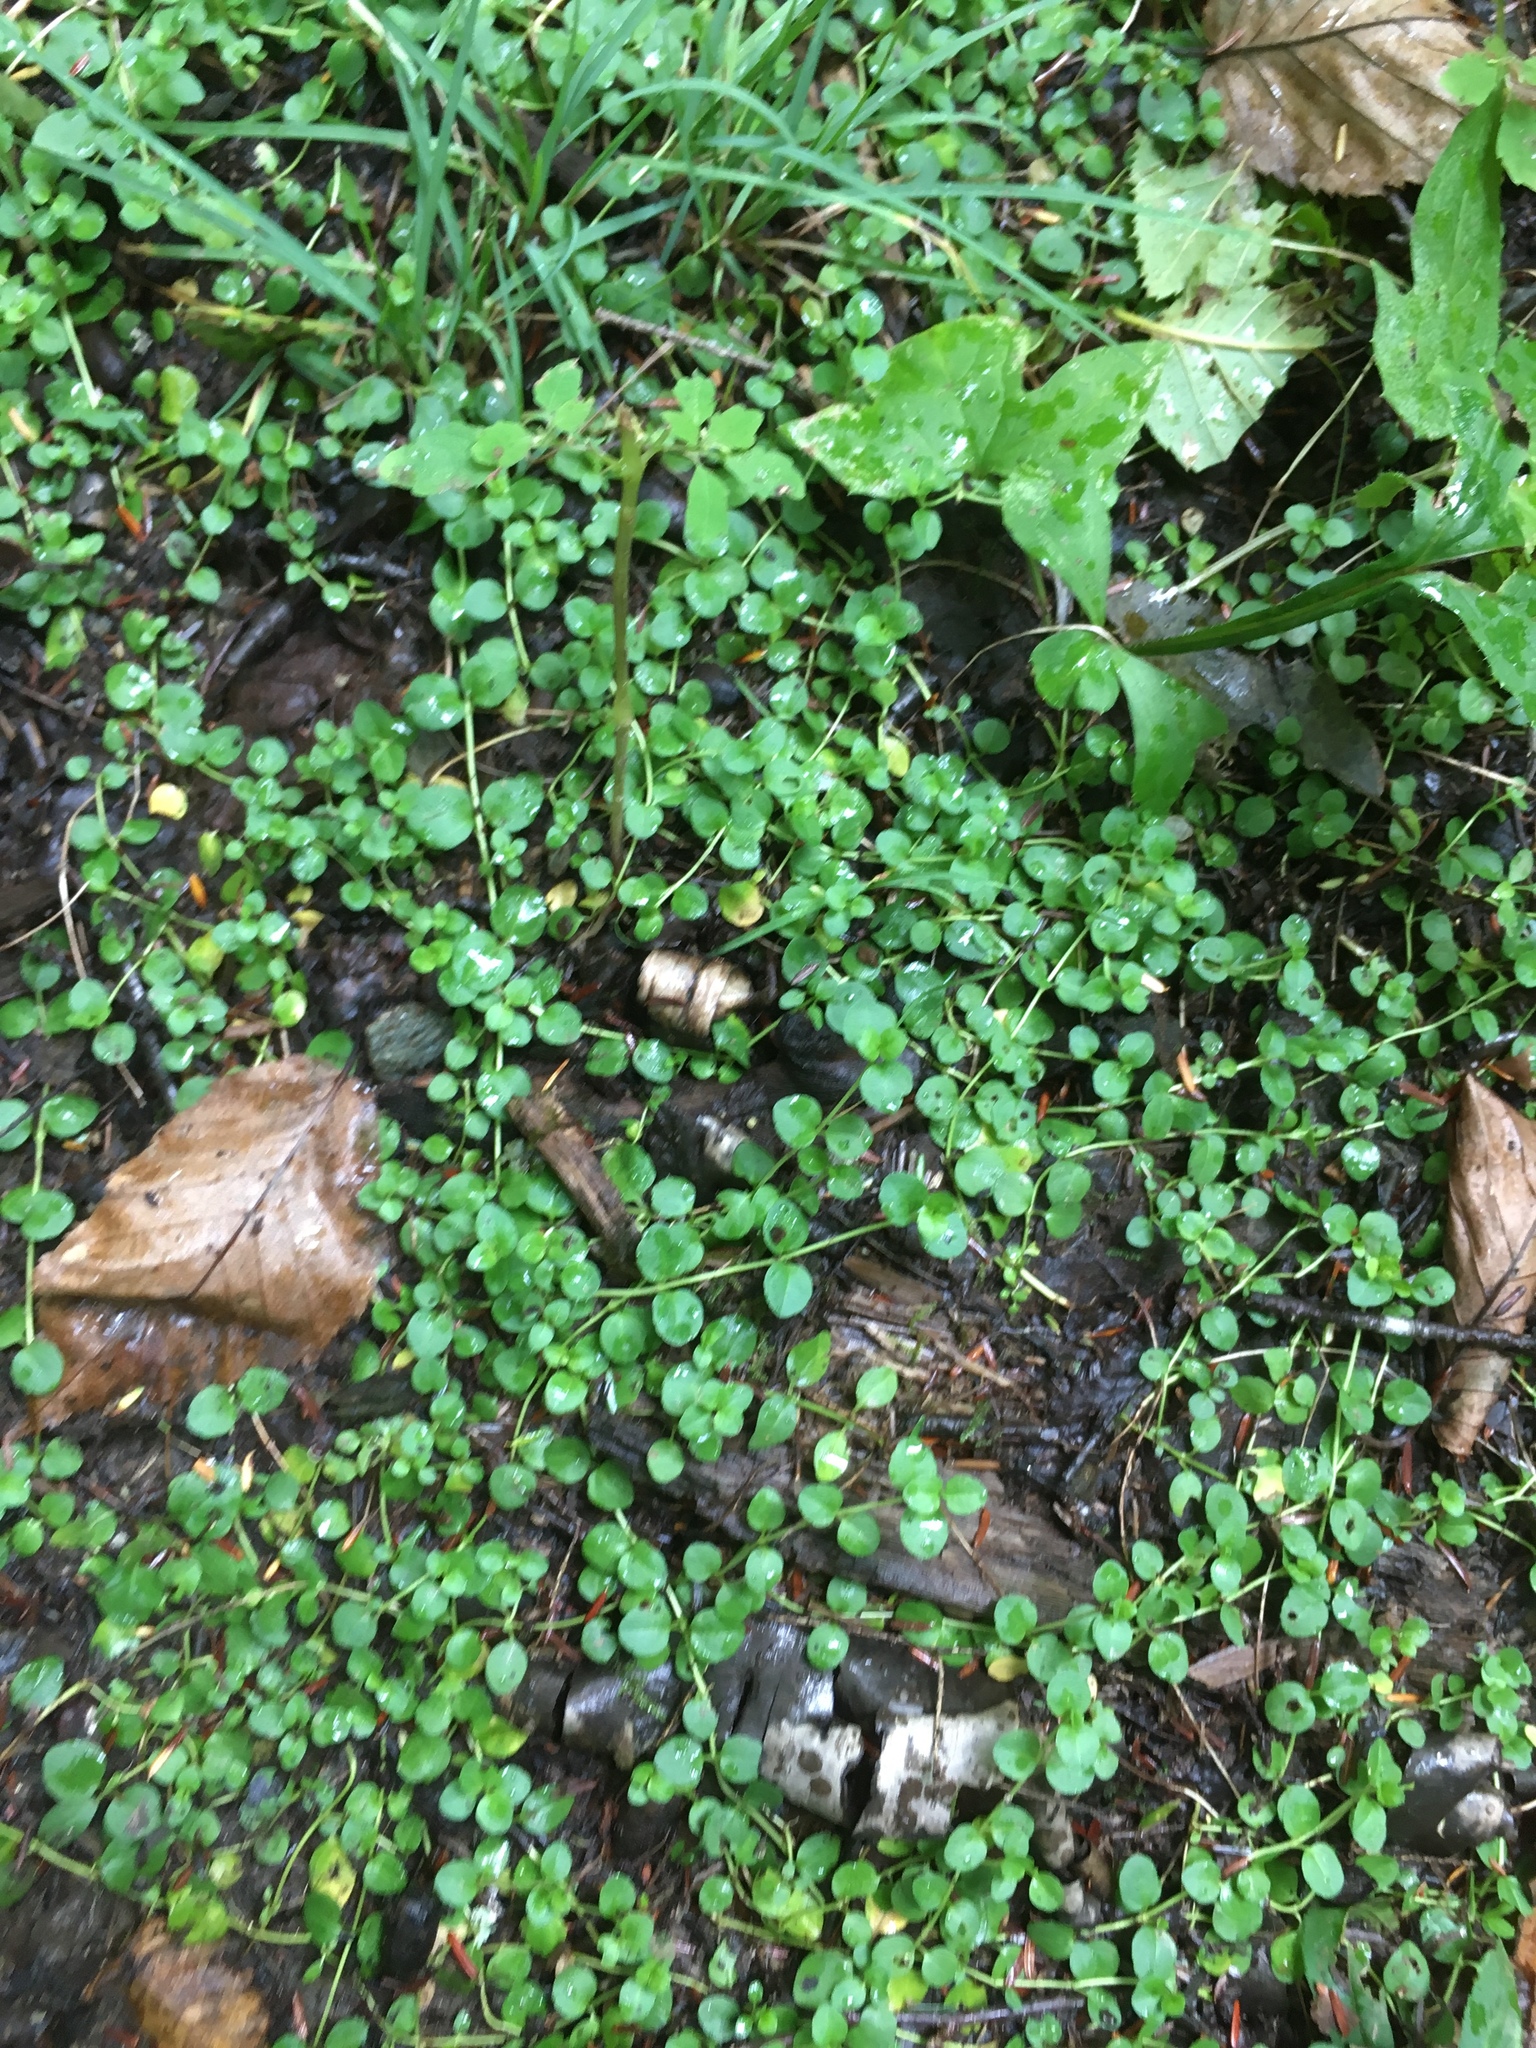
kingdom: Plantae
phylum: Tracheophyta
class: Magnoliopsida
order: Saxifragales
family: Saxifragaceae
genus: Chrysosplenium
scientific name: Chrysosplenium americanum
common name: American golden-saxifrage
